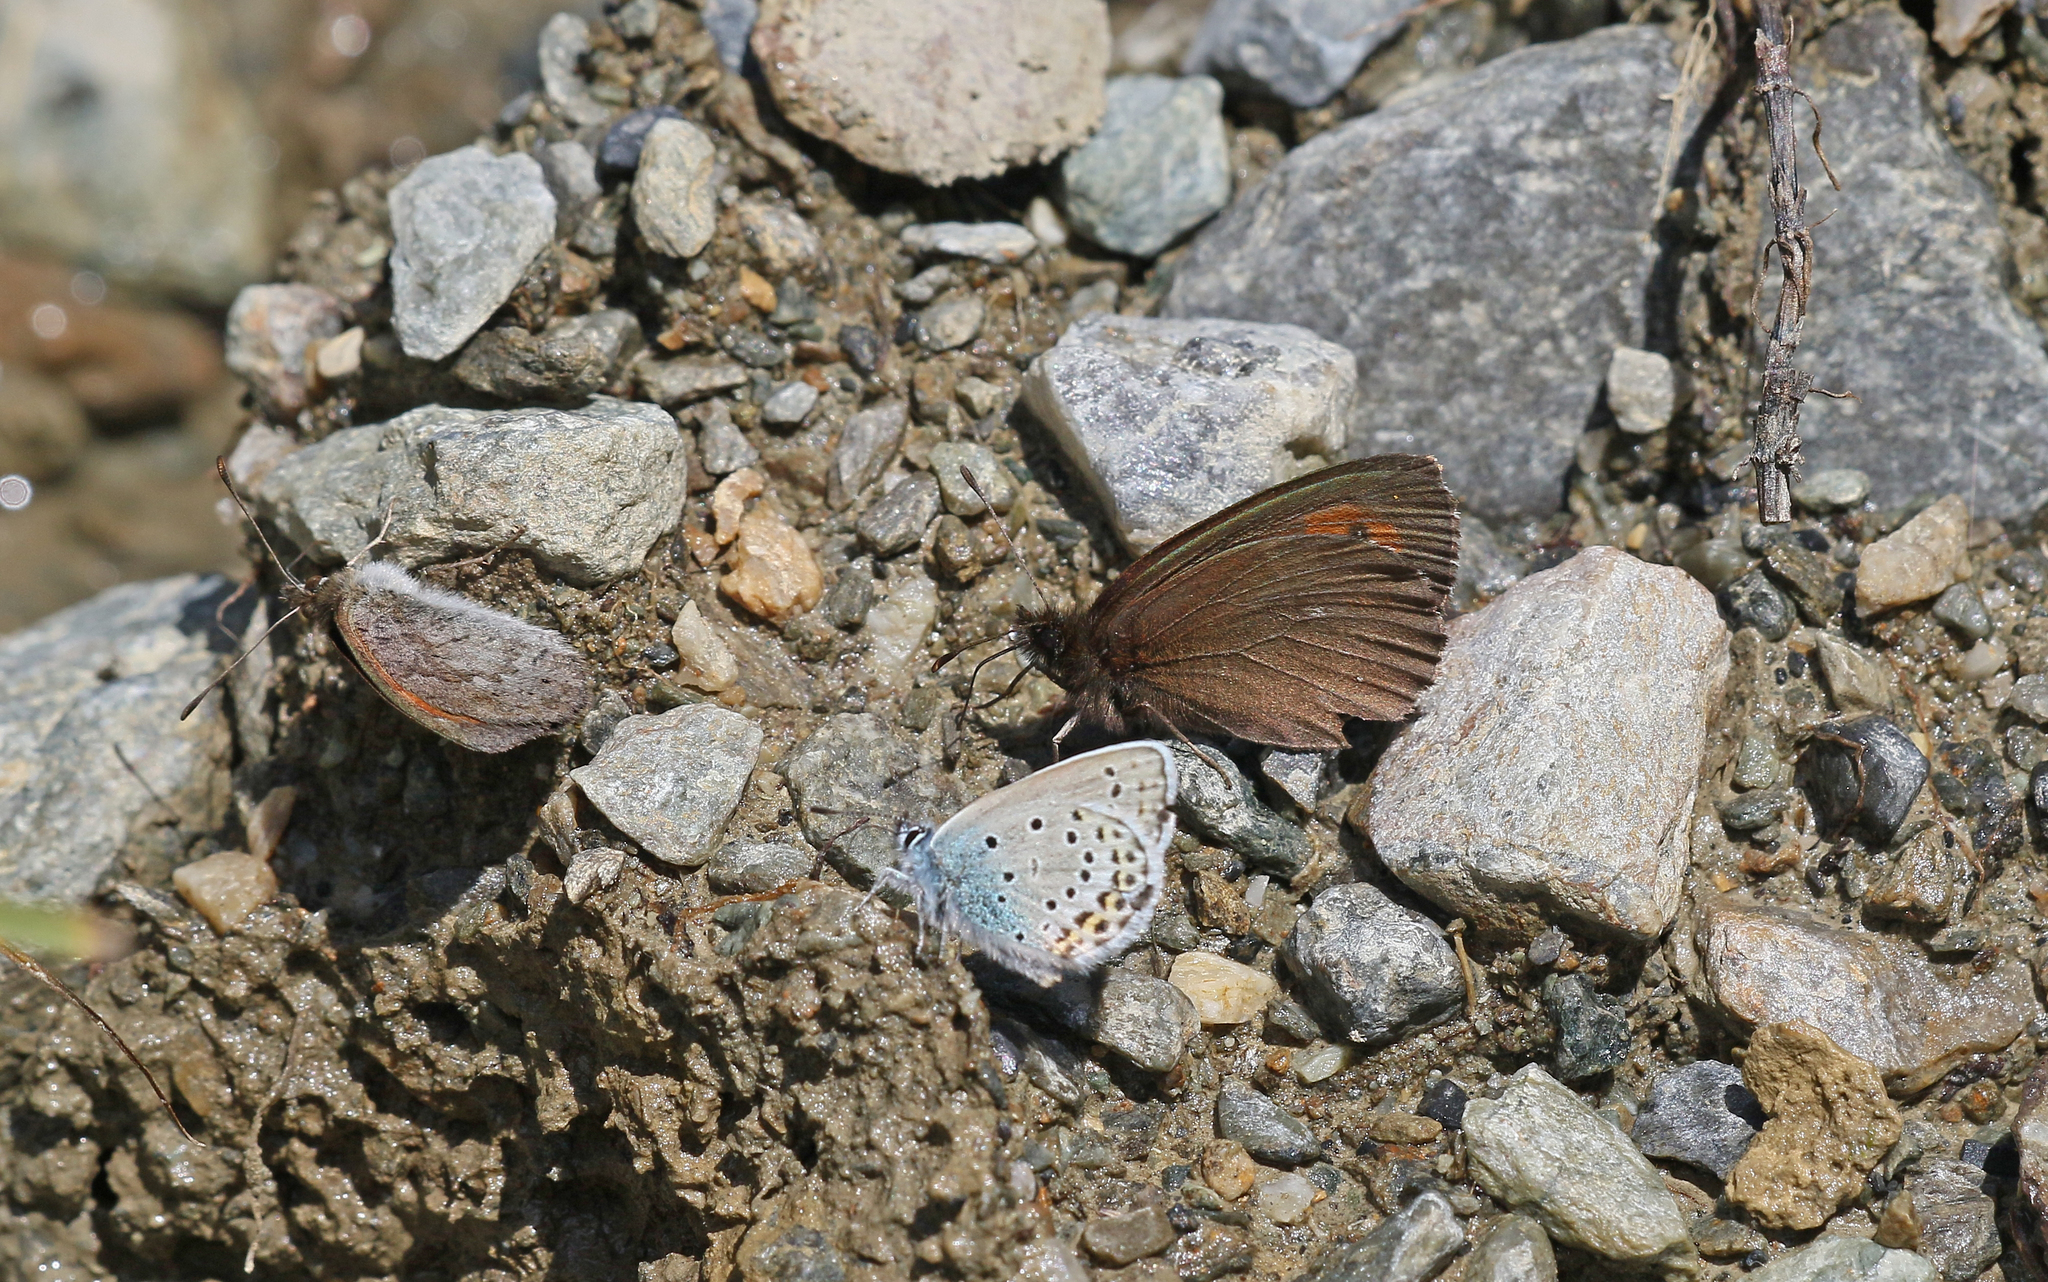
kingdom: Animalia
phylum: Arthropoda
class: Insecta
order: Lepidoptera
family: Nymphalidae
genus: Erebia
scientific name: Erebia euryale
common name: Large ringlet
